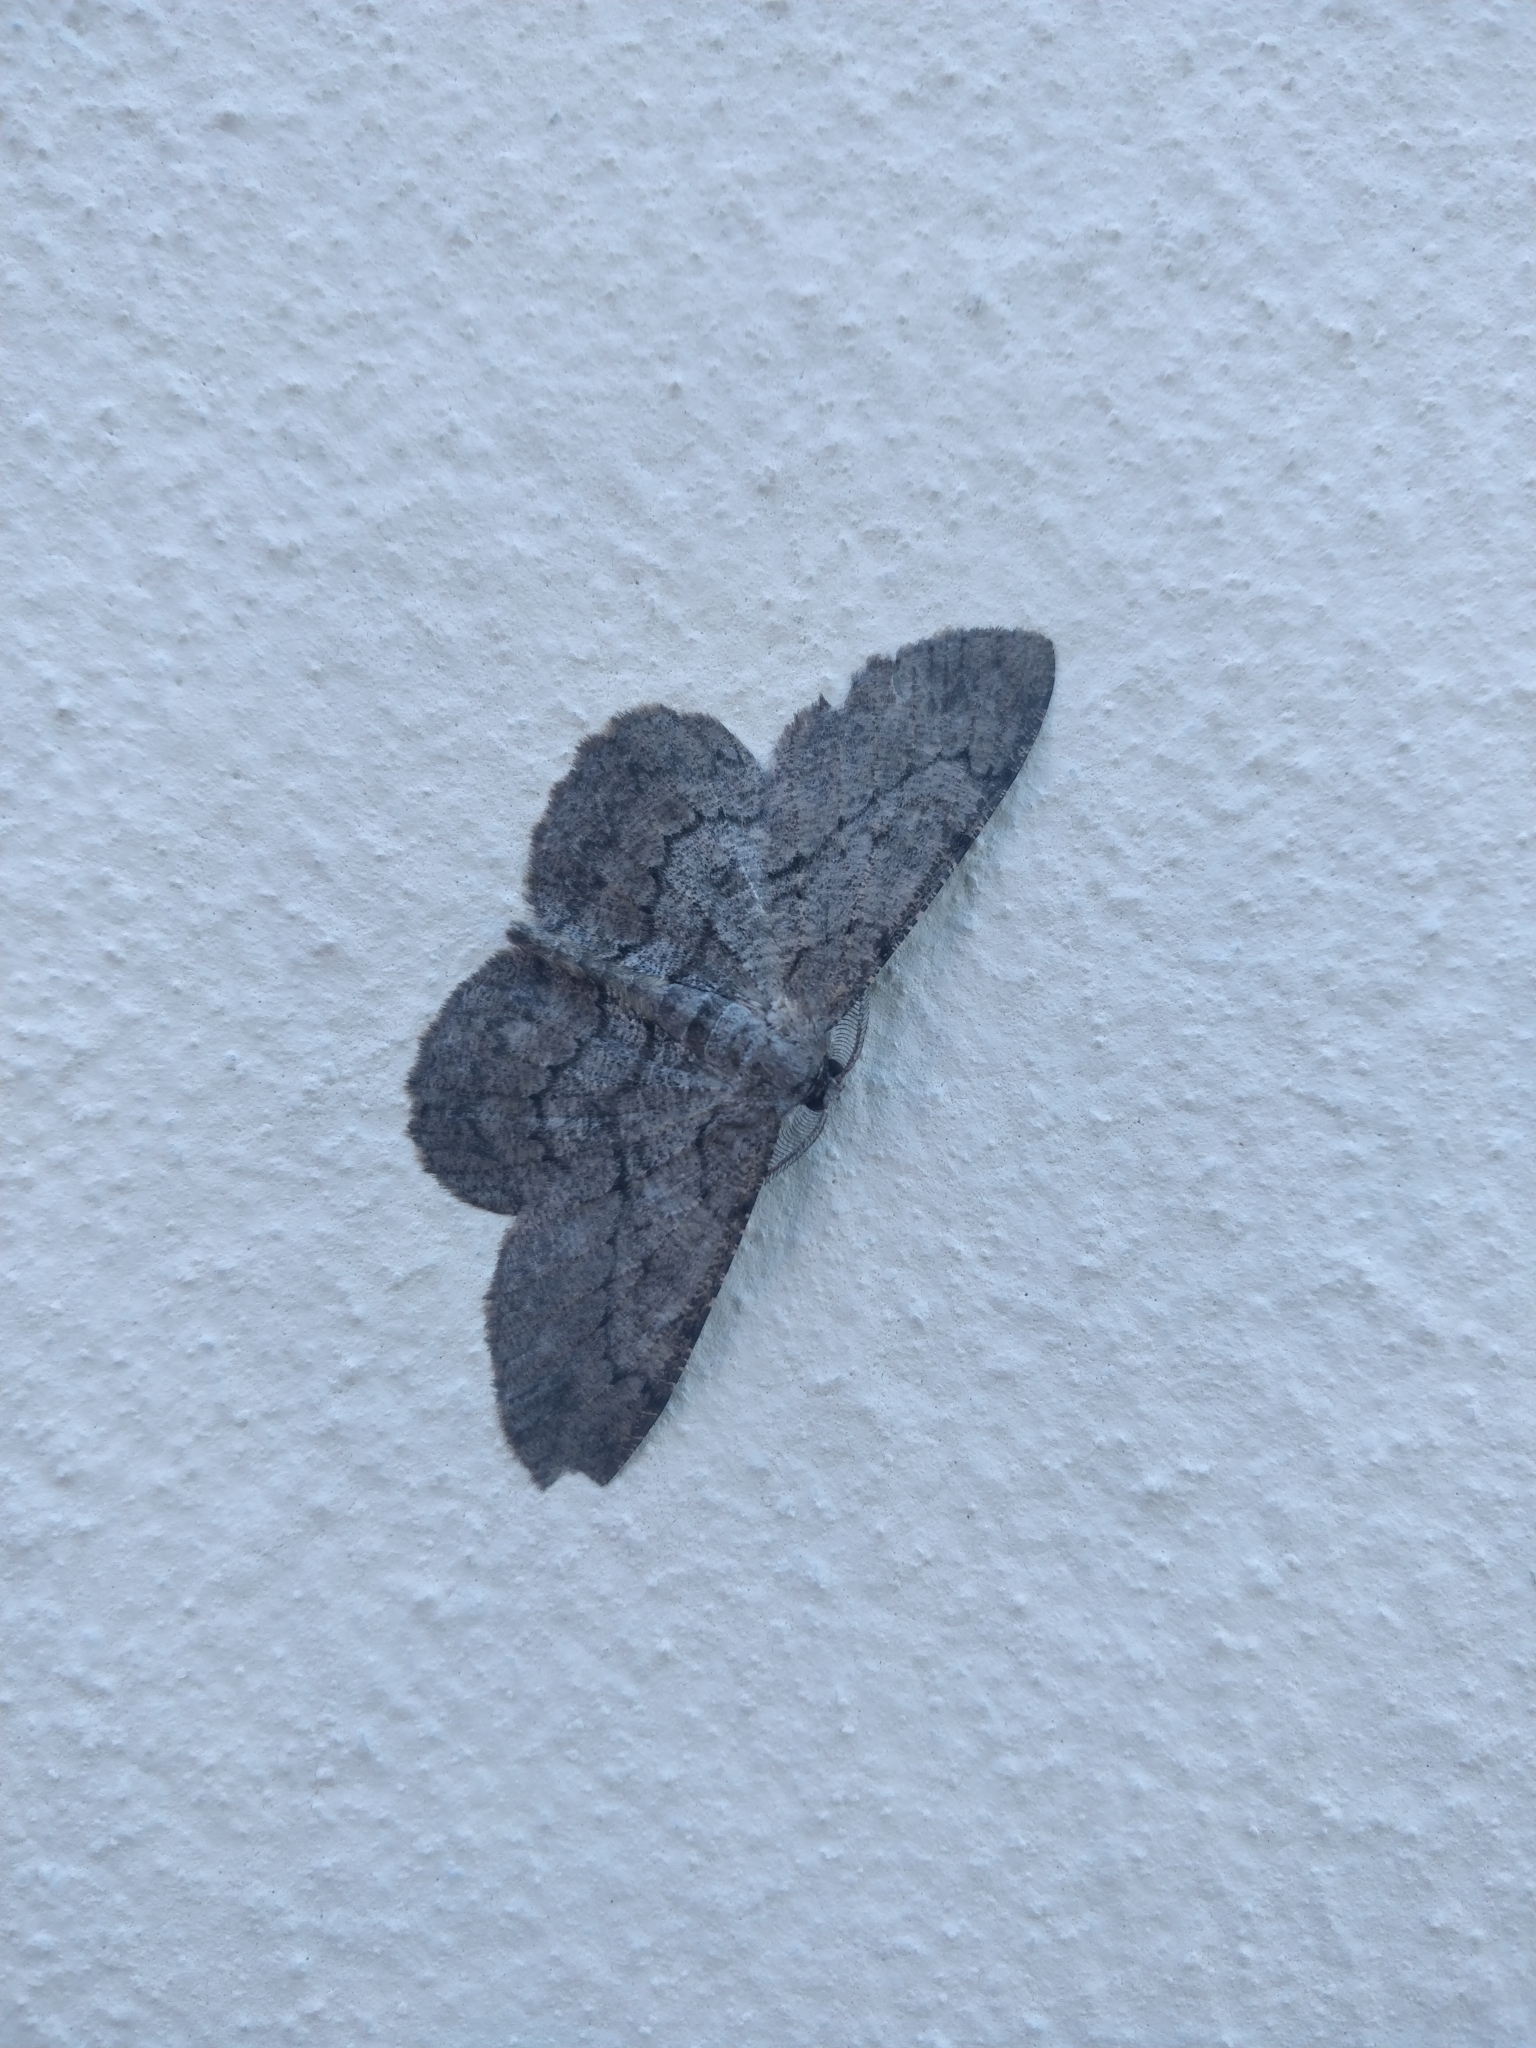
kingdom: Animalia
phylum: Arthropoda
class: Insecta
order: Lepidoptera
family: Geometridae
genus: Hypomecis
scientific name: Hypomecis punctinalis
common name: Pale oak beauty
